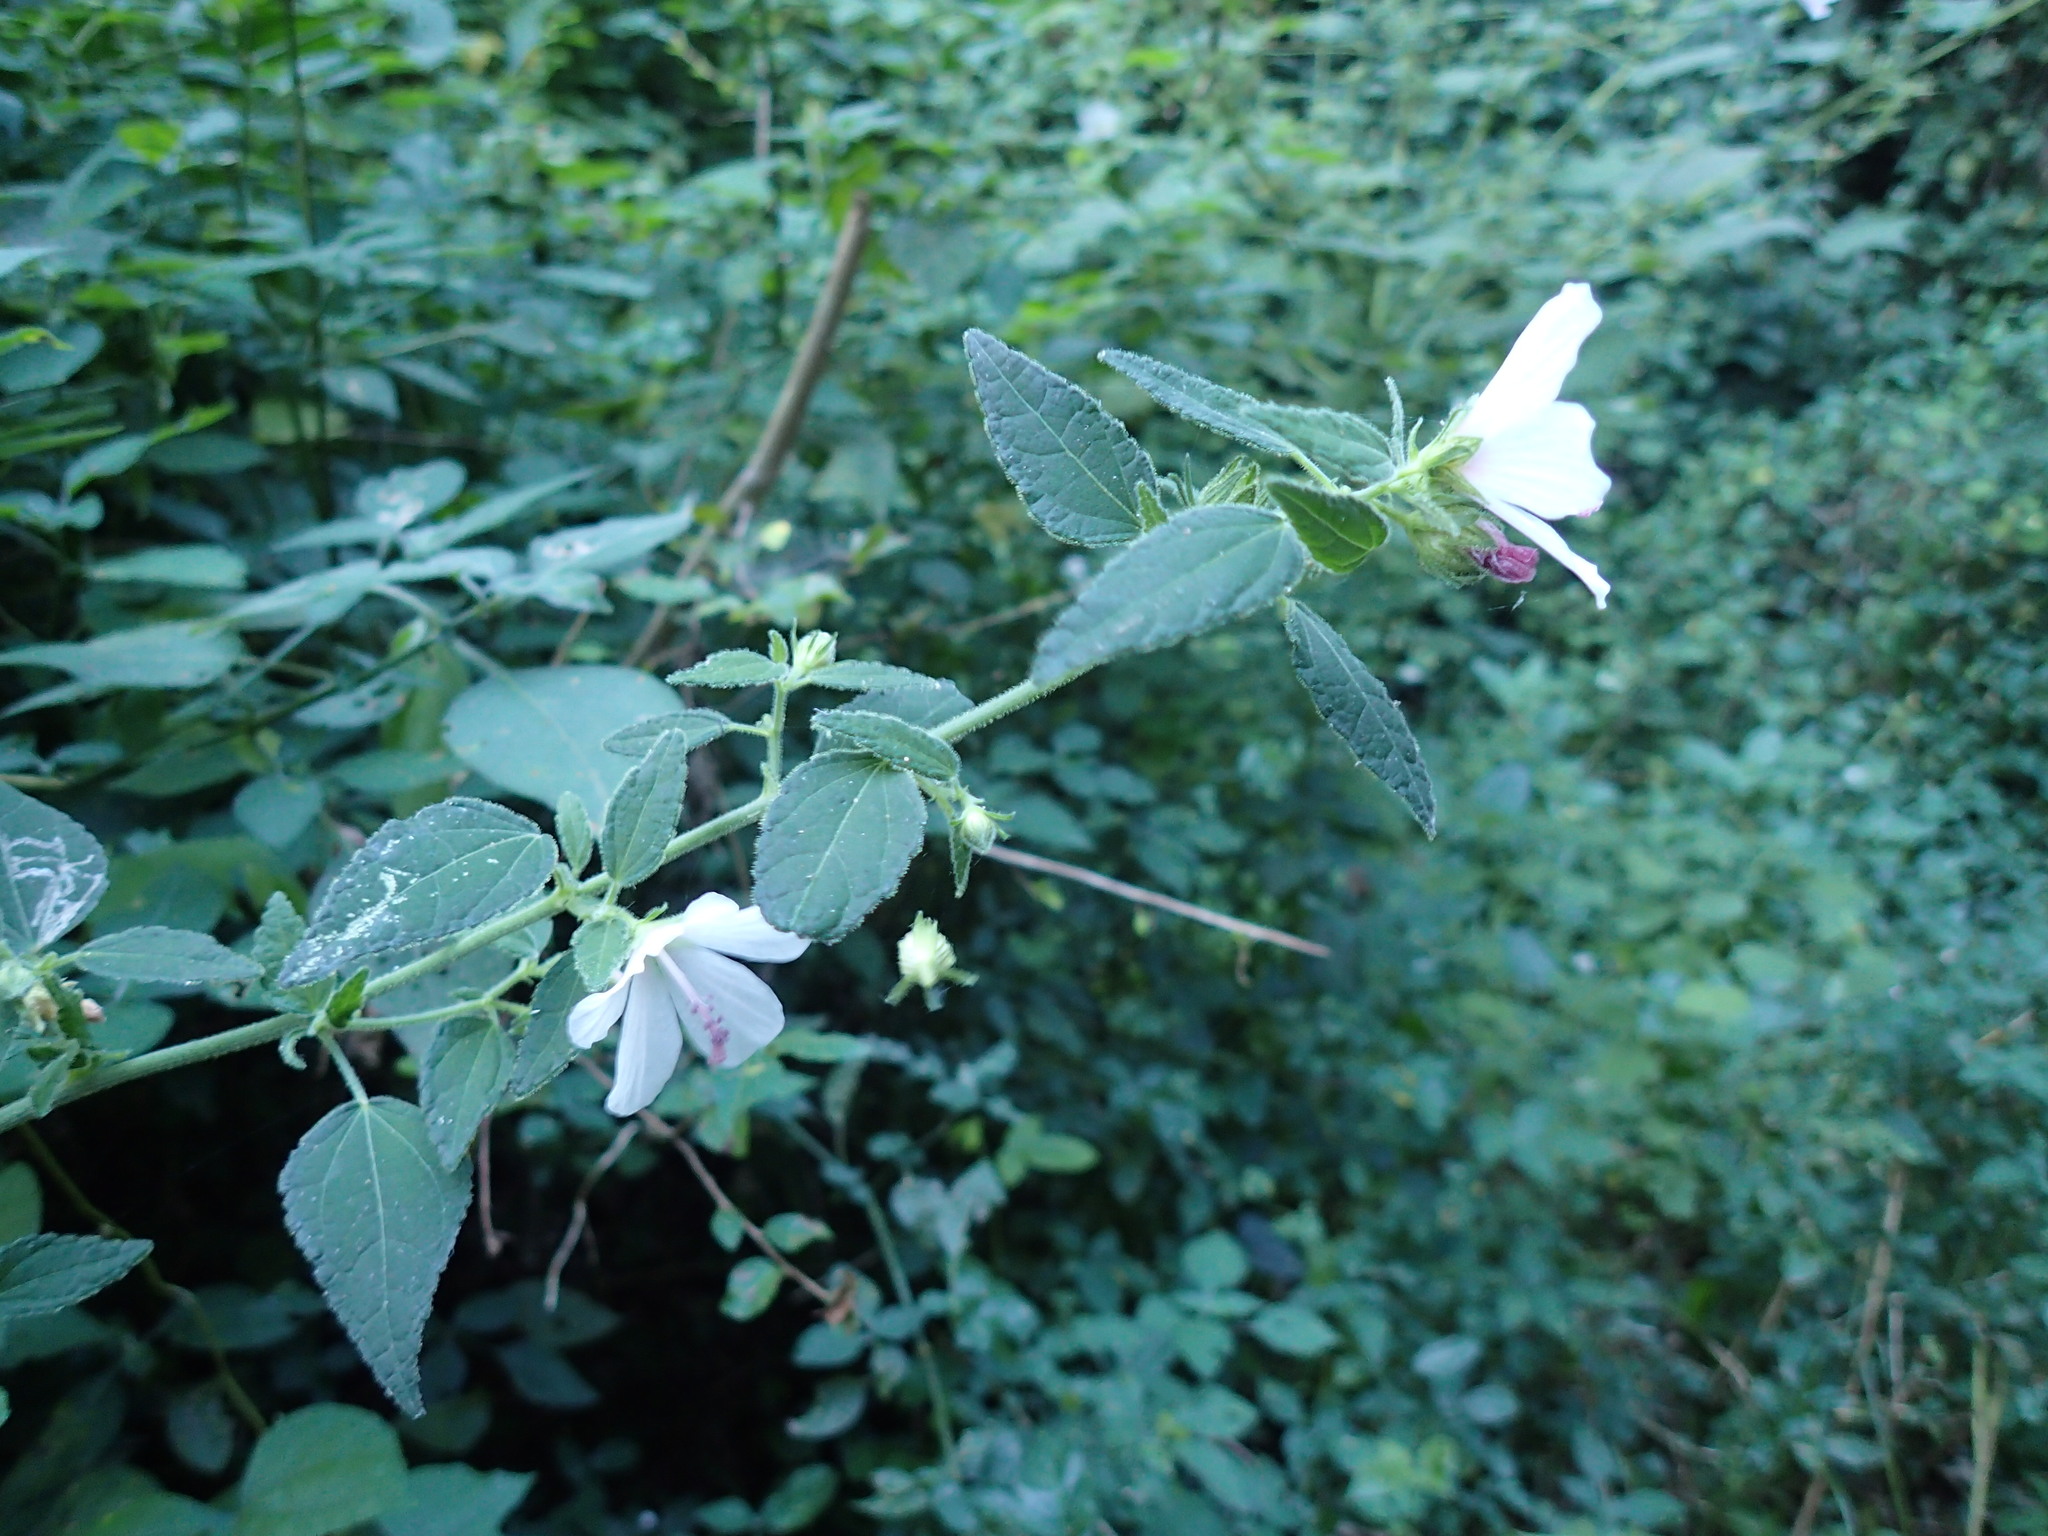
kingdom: Plantae
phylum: Tracheophyta
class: Magnoliopsida
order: Malvales
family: Malvaceae
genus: Pavonia
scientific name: Pavonia columella
